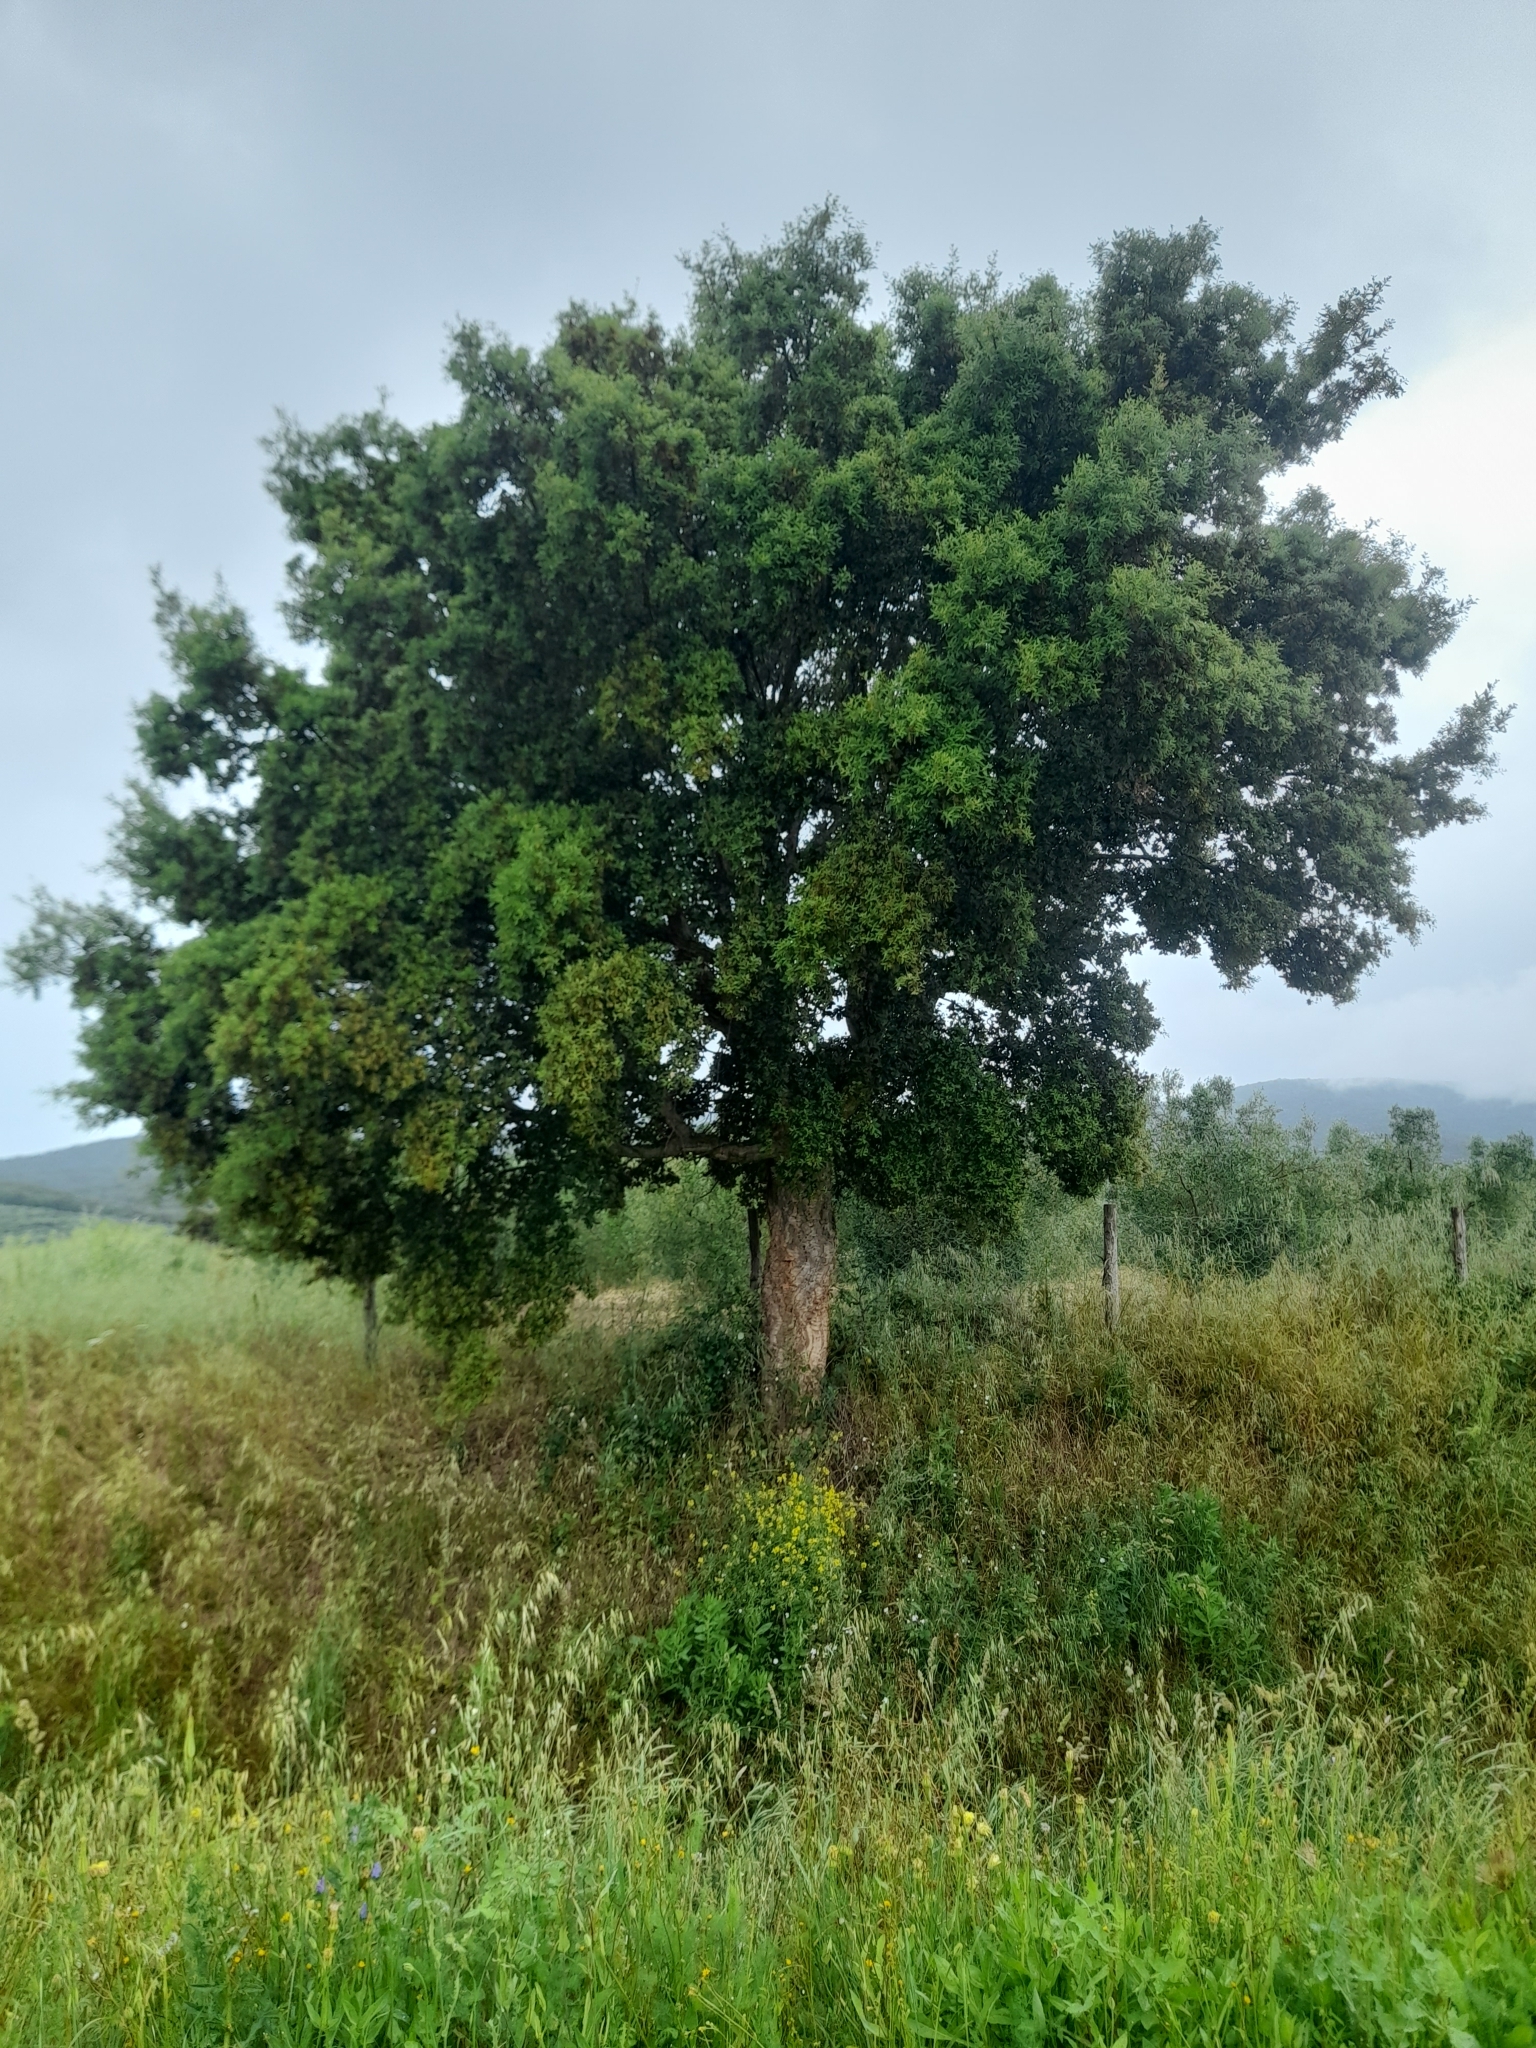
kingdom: Plantae
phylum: Tracheophyta
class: Magnoliopsida
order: Fagales
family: Fagaceae
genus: Quercus
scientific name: Quercus suber
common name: Cork oak
